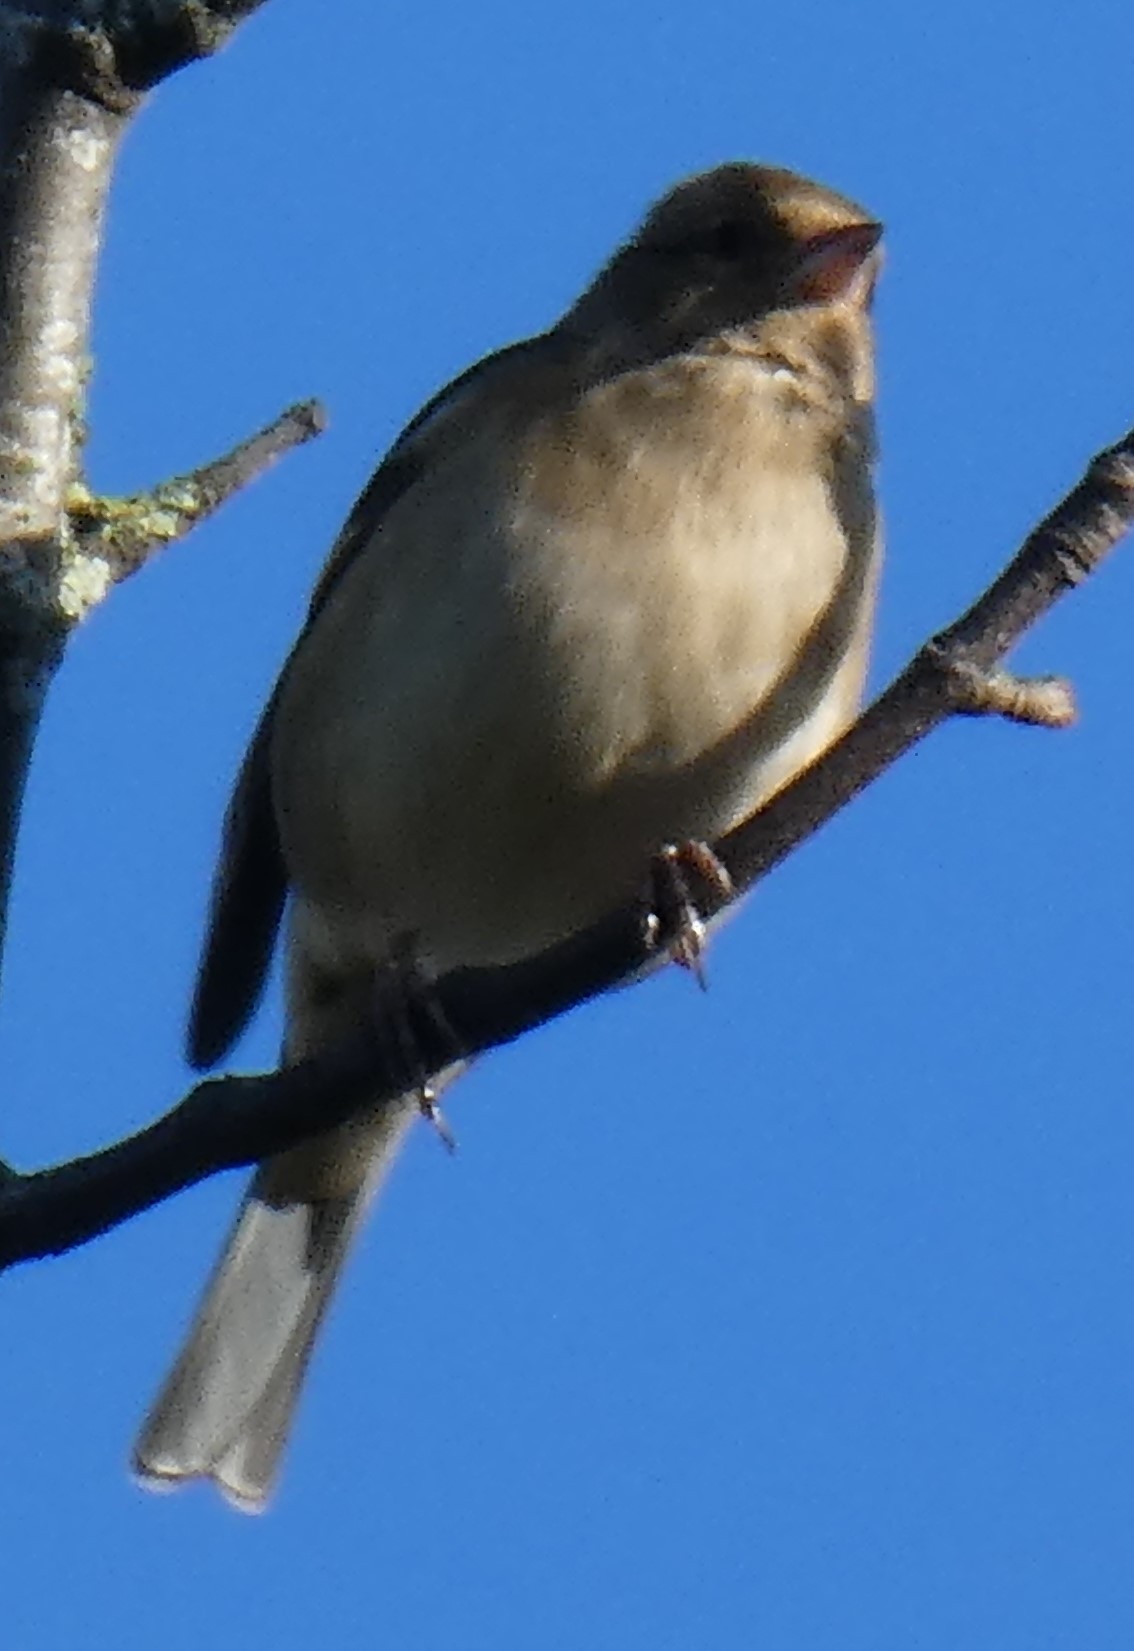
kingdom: Animalia
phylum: Chordata
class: Aves
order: Passeriformes
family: Fringillidae
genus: Fringilla
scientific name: Fringilla coelebs
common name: Common chaffinch
